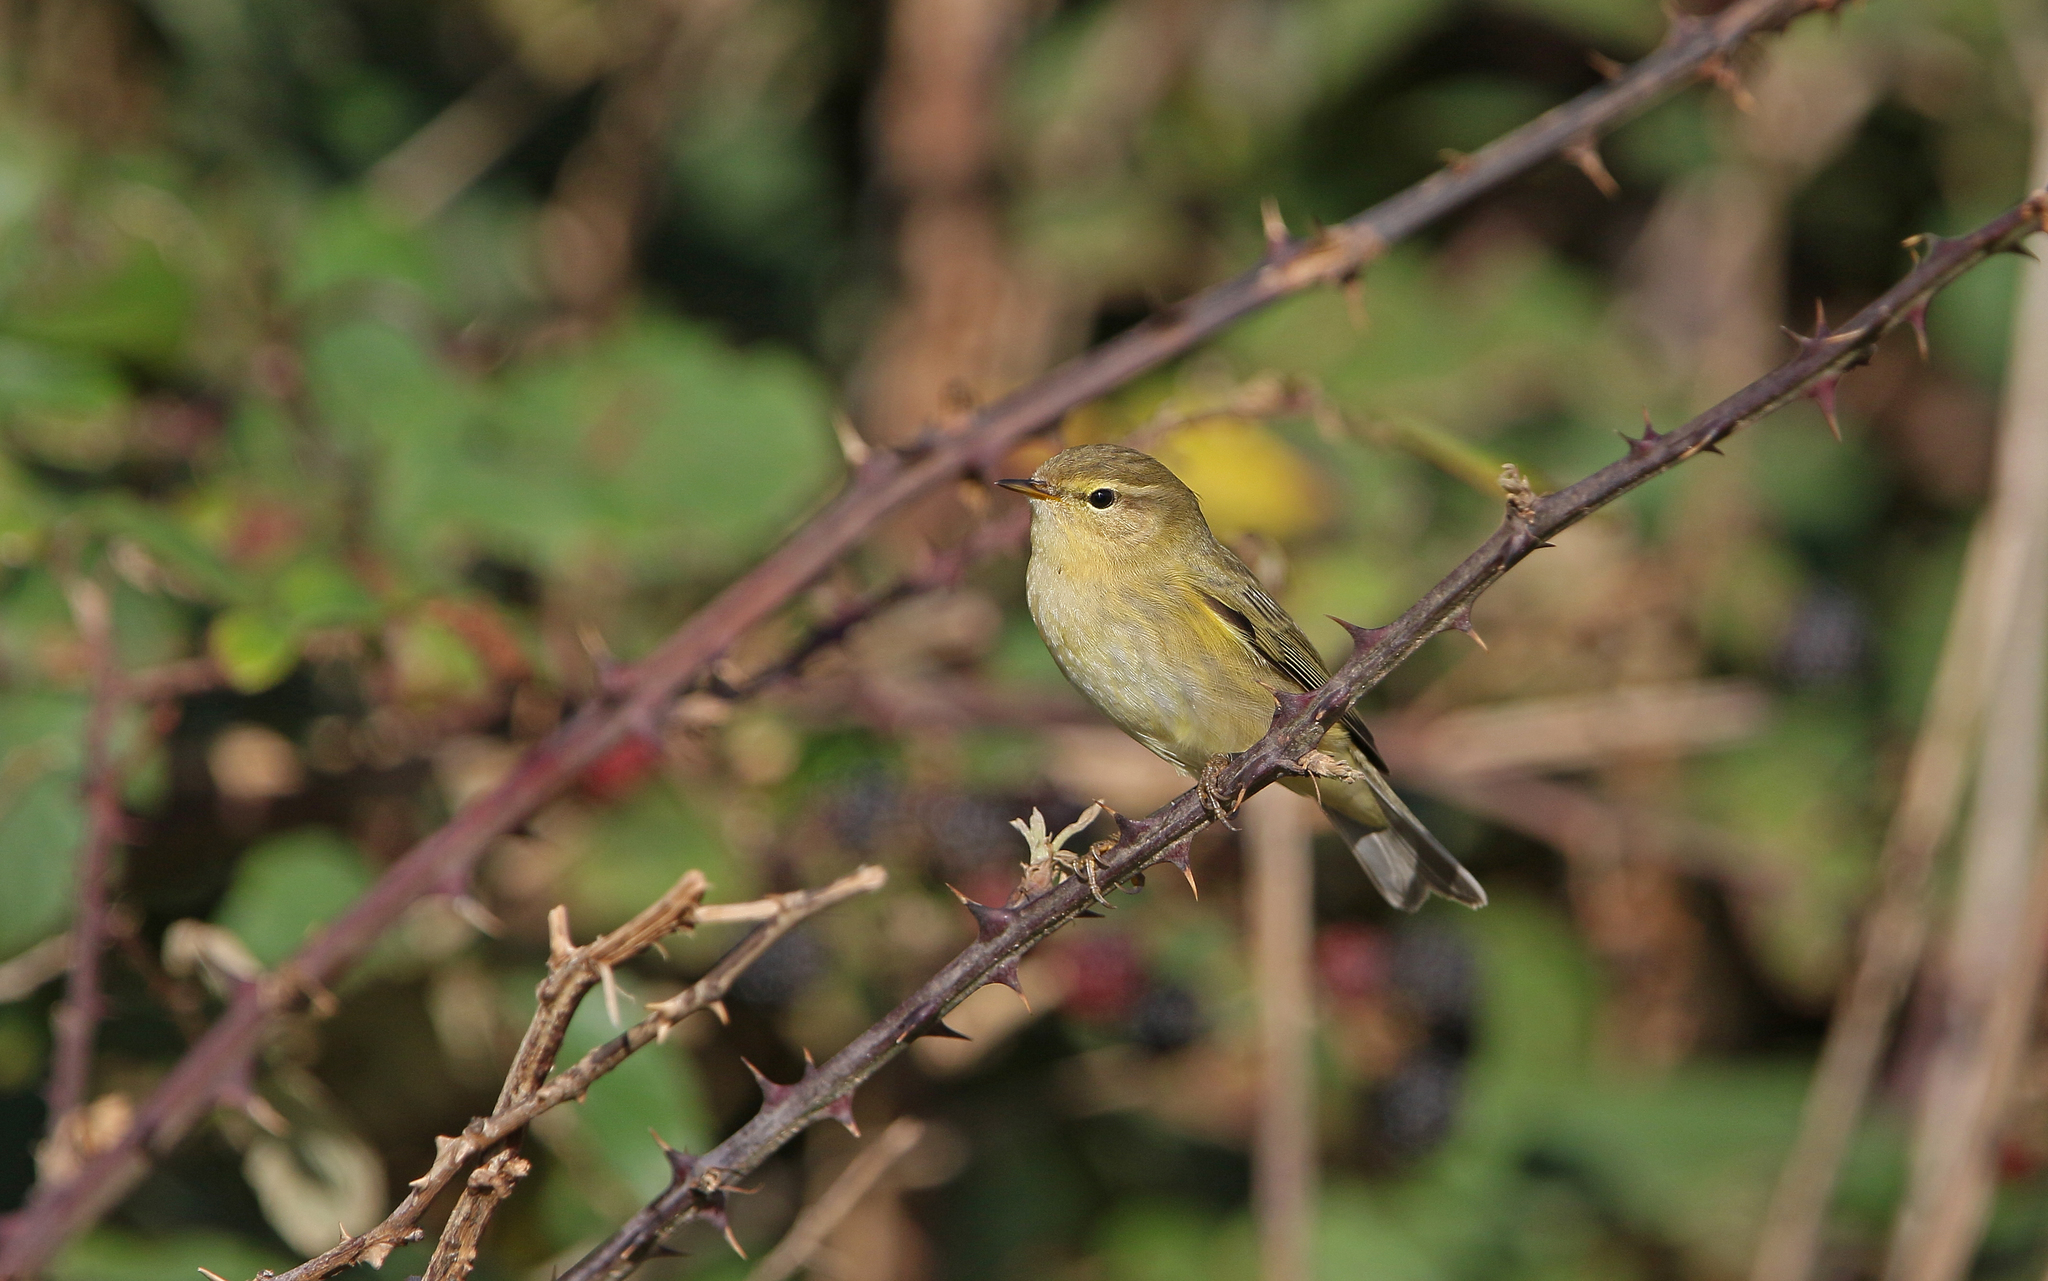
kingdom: Animalia
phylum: Chordata
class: Aves
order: Passeriformes
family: Phylloscopidae
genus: Phylloscopus
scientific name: Phylloscopus collybita
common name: Common chiffchaff
